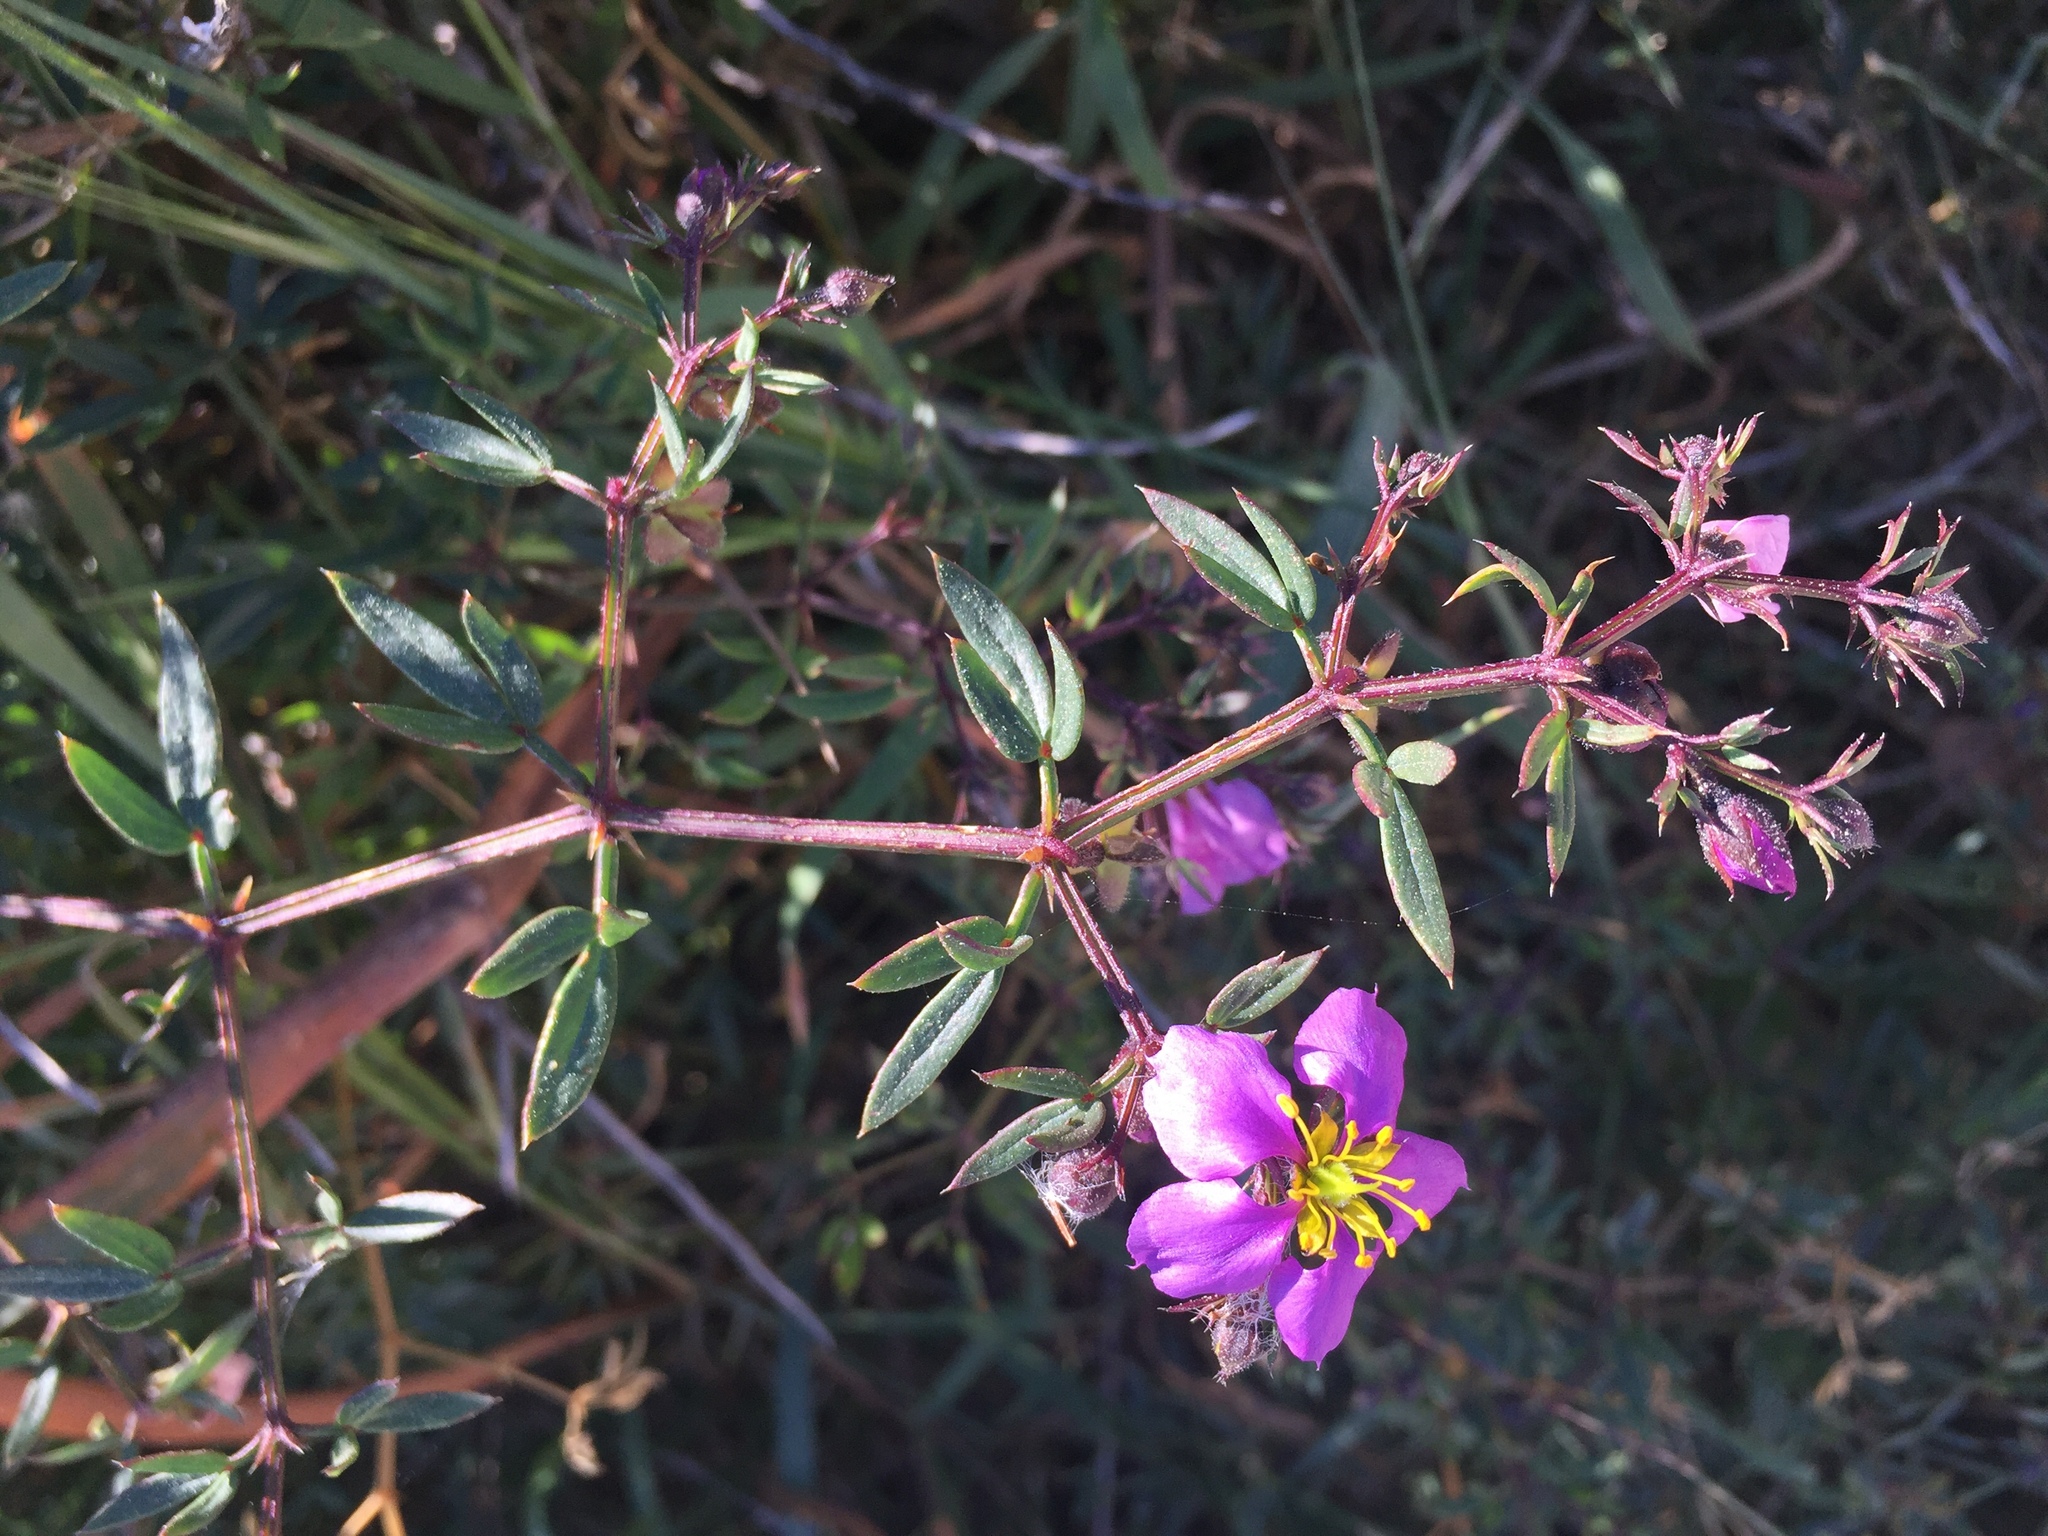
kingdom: Plantae
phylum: Tracheophyta
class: Magnoliopsida
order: Zygophyllales
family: Zygophyllaceae
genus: Fagonia
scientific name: Fagonia cretica
